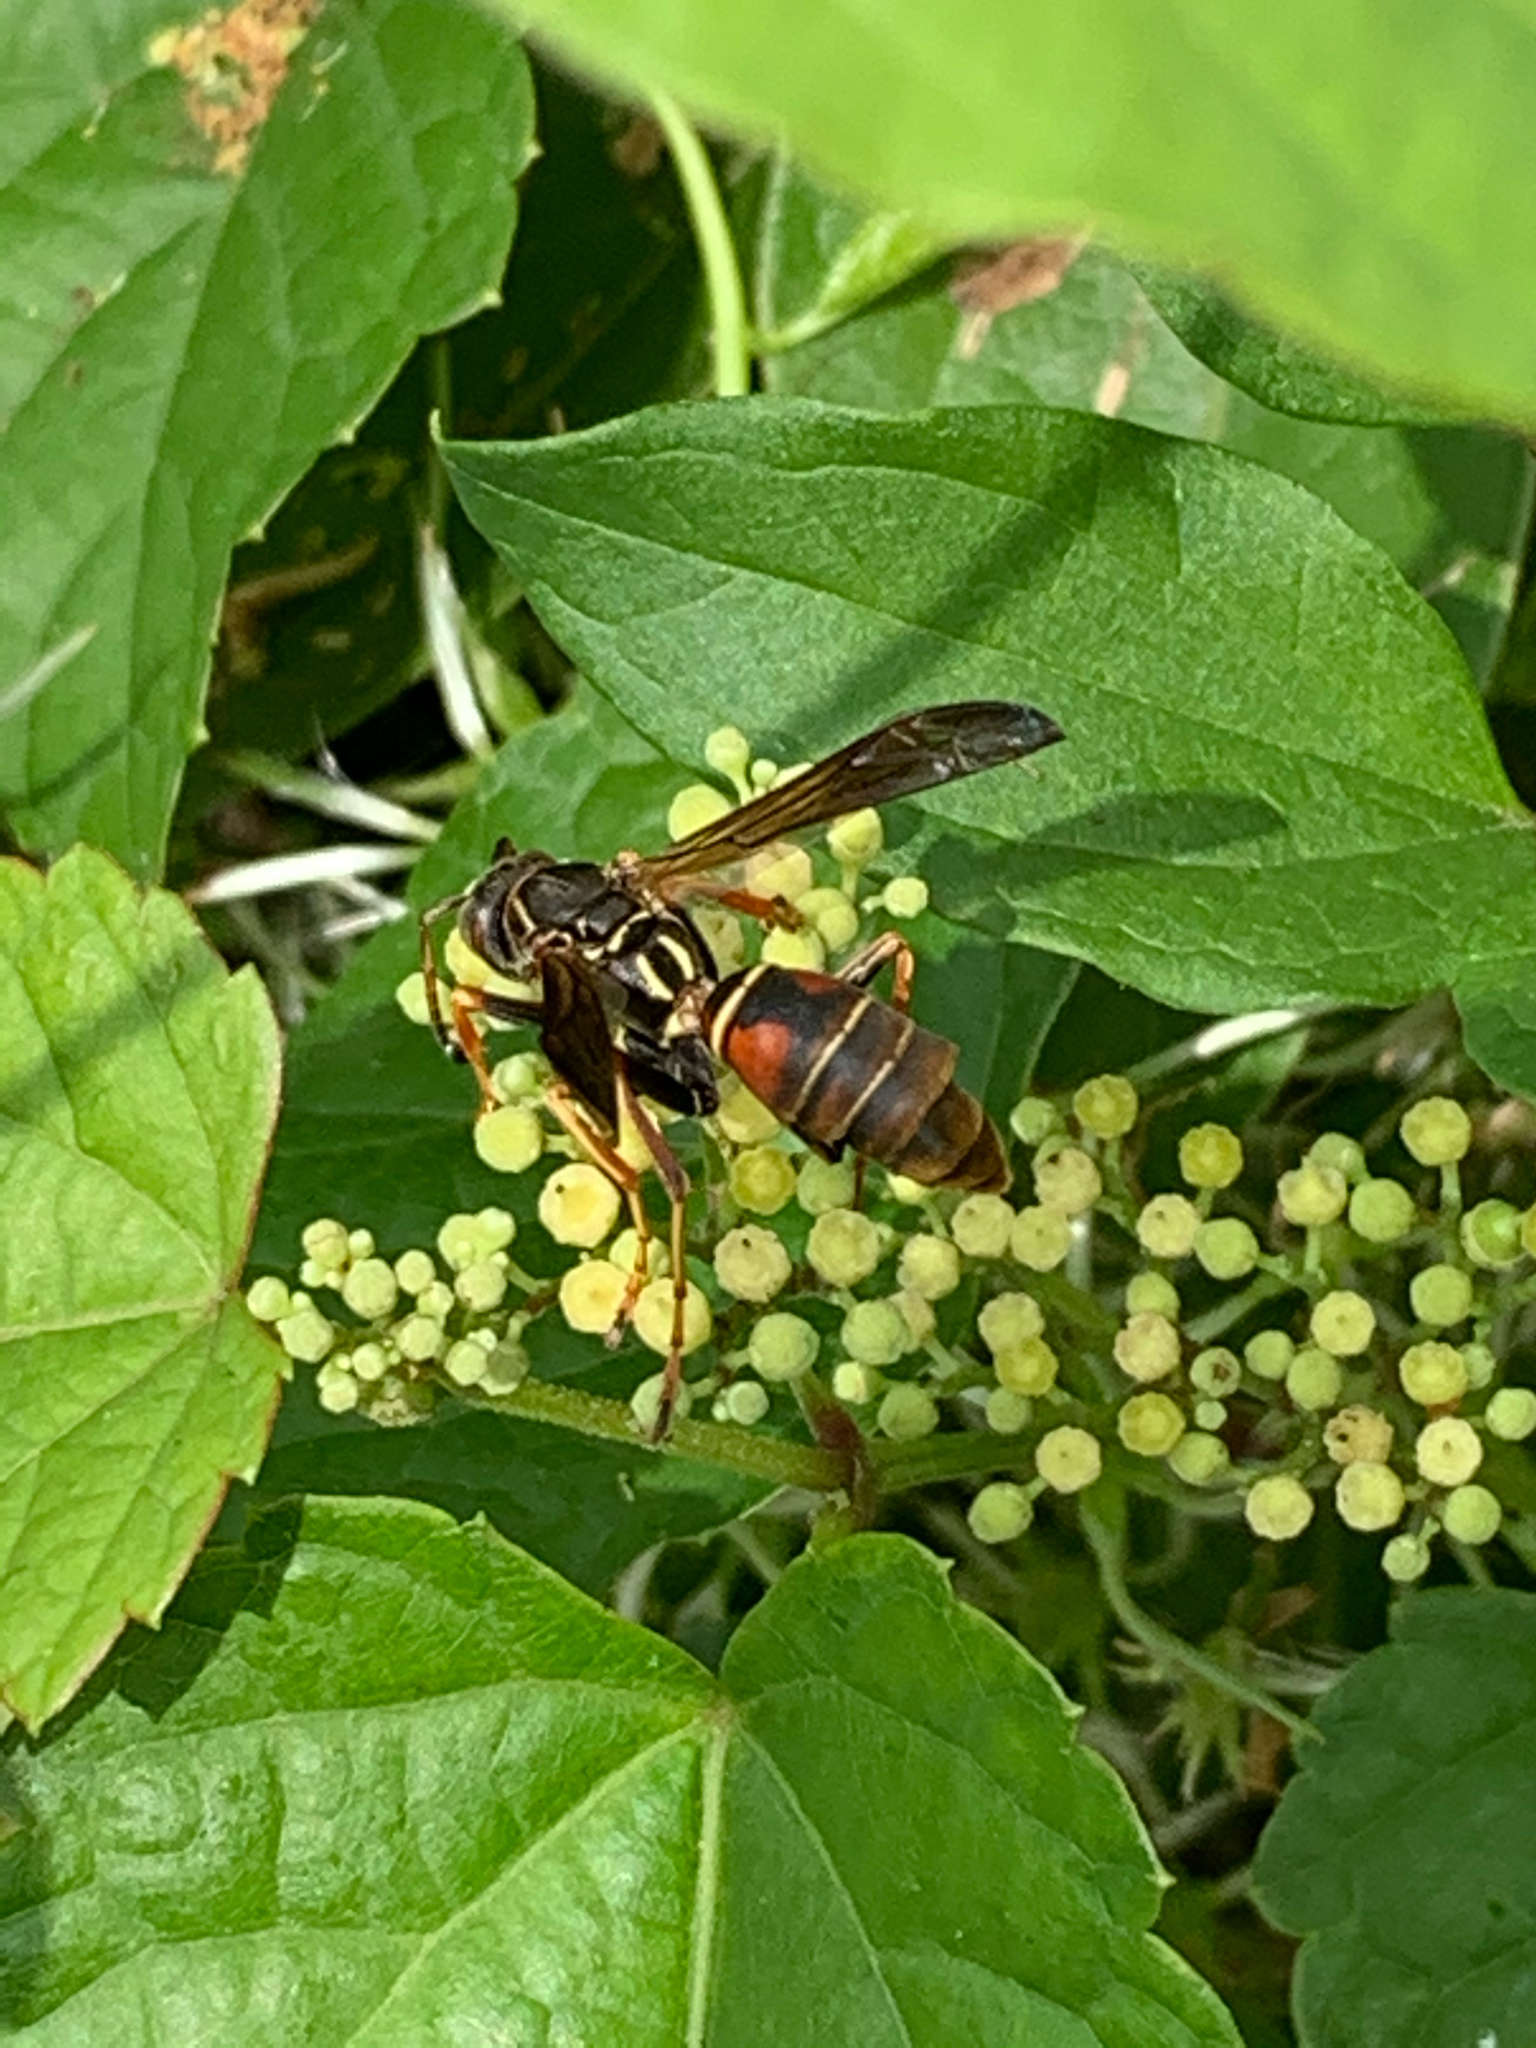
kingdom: Animalia
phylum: Arthropoda
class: Insecta
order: Hymenoptera
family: Eumenidae
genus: Polistes
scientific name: Polistes fuscatus
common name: Dark paper wasp
